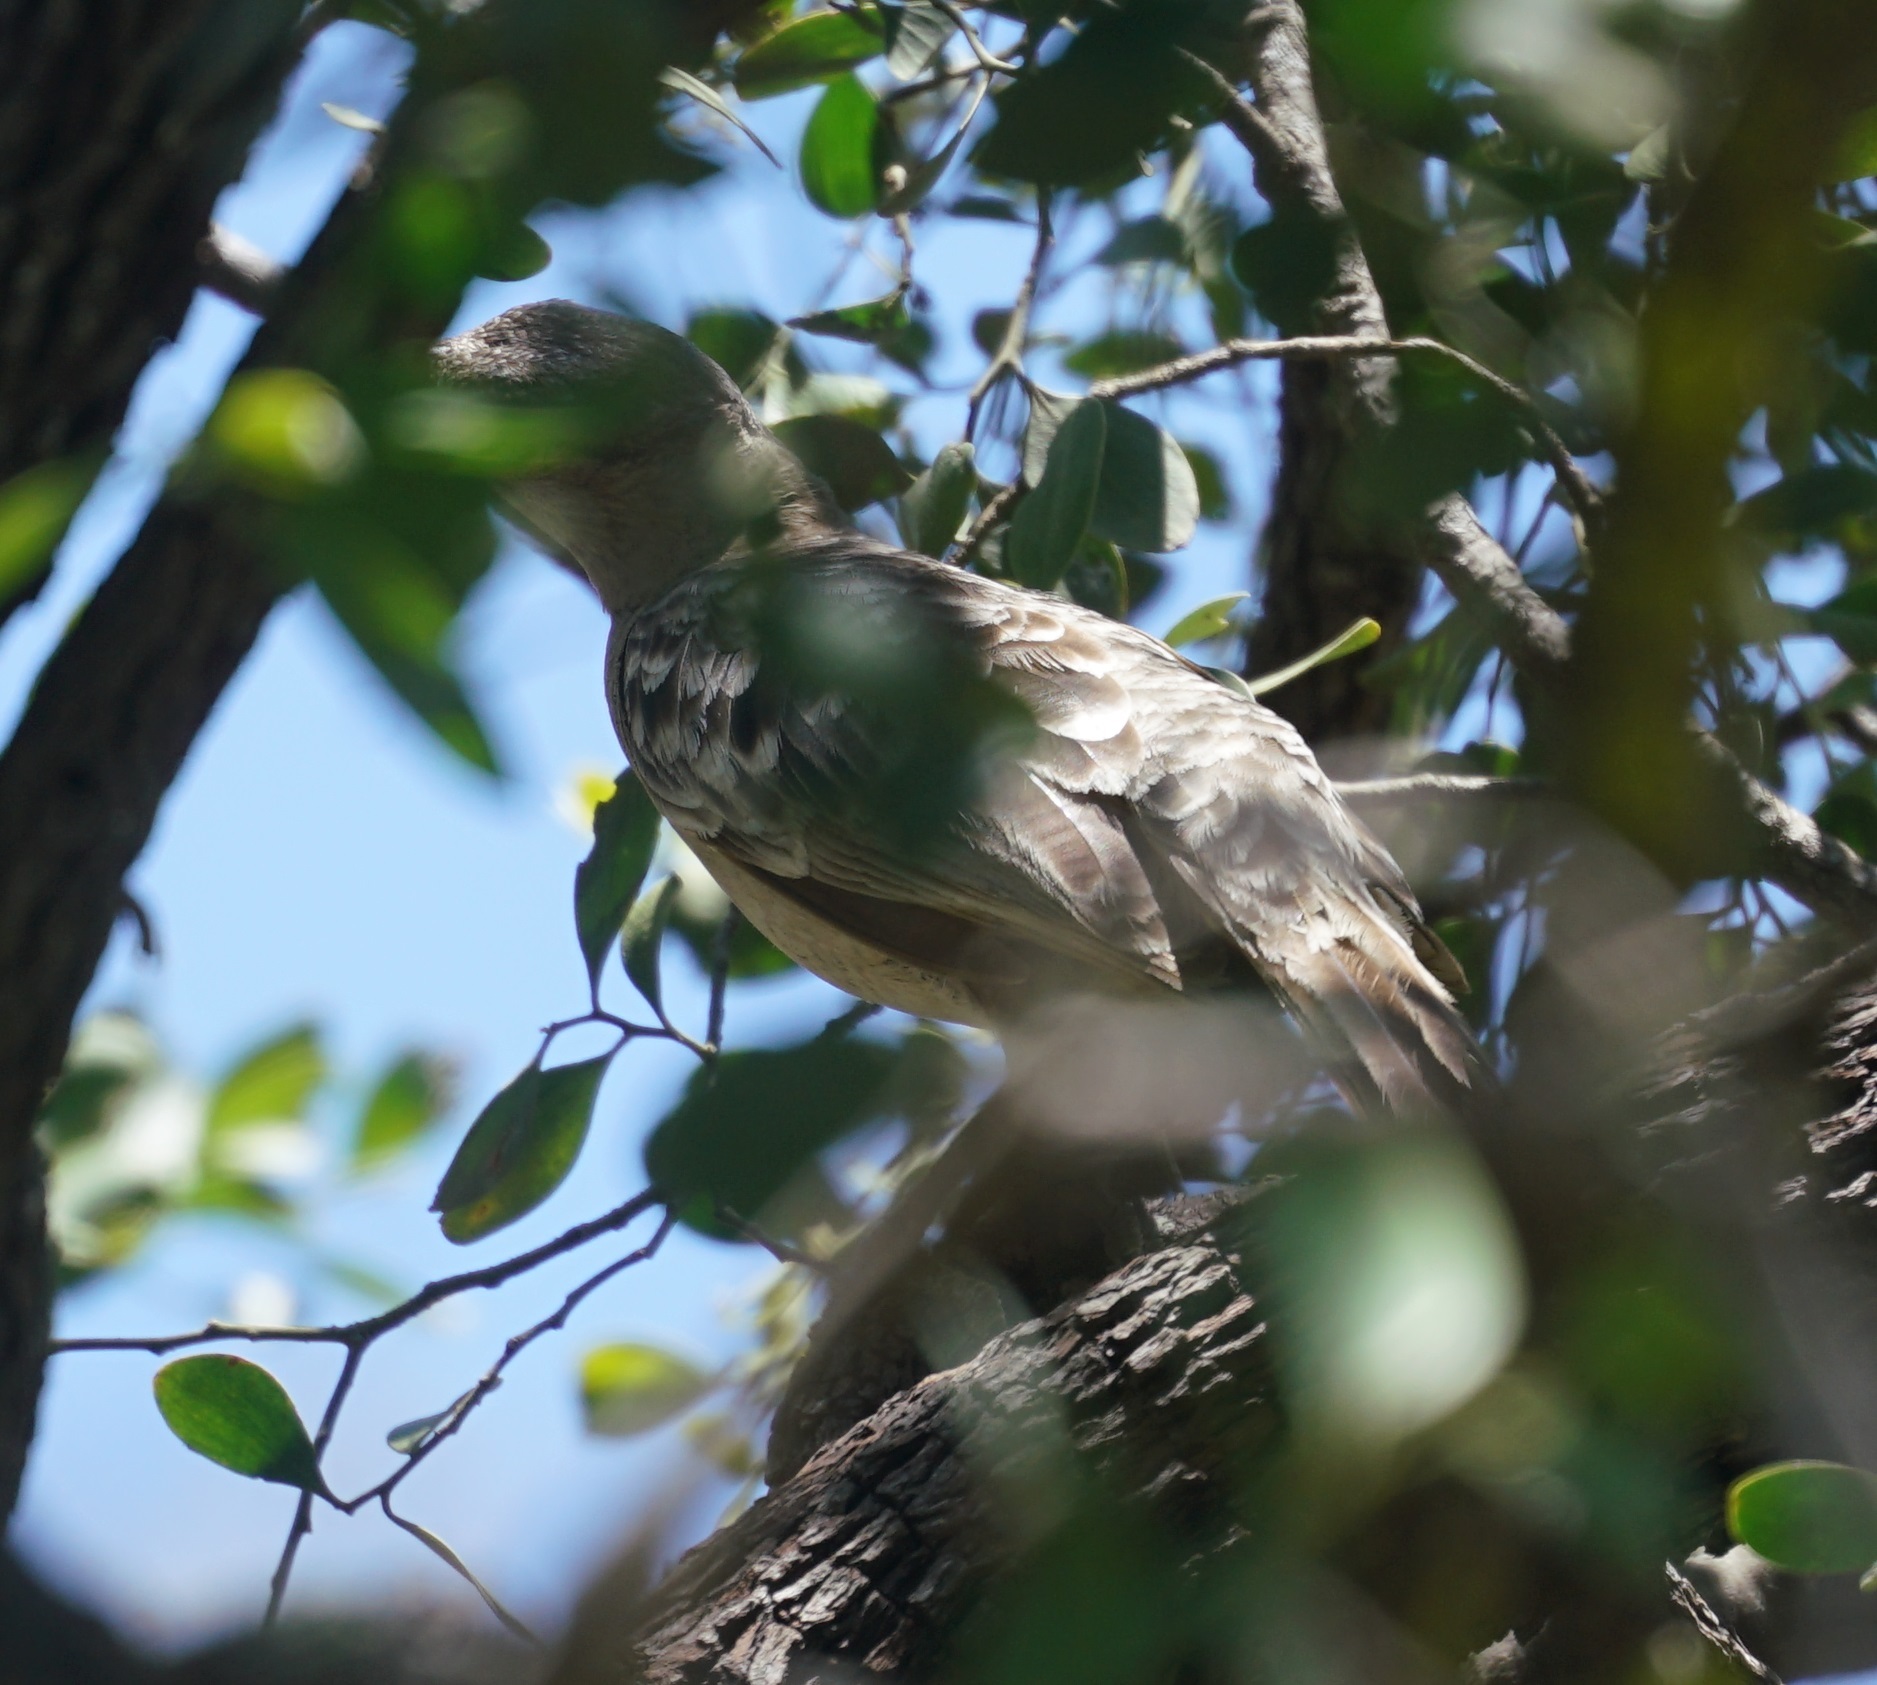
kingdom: Animalia
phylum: Chordata
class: Aves
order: Passeriformes
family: Ptilonorhynchidae
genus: Chlamydera
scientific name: Chlamydera nuchalis
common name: Great bowerbird
